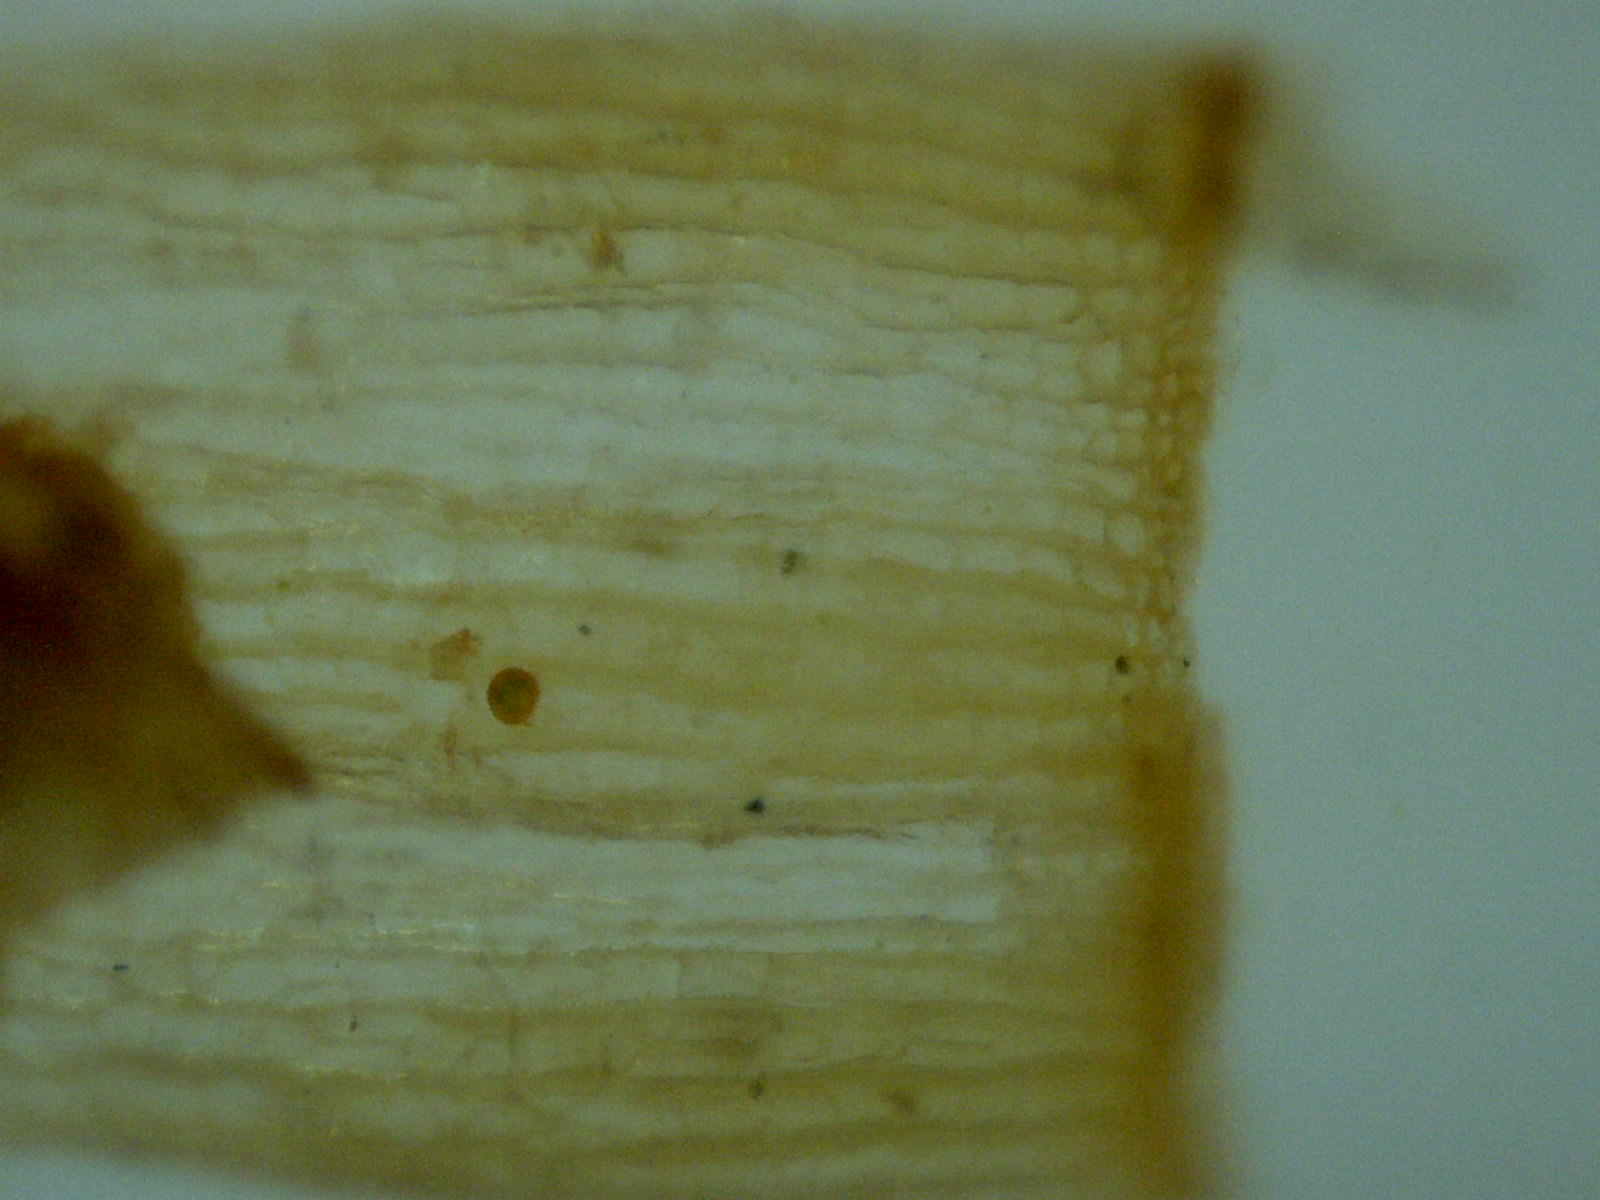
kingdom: Plantae
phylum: Bryophyta
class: Bryopsida
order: Orthotrichales
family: Orthotrichaceae
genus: Orthotrichum
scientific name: Orthotrichum stellatum
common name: Starlike bristle moss
